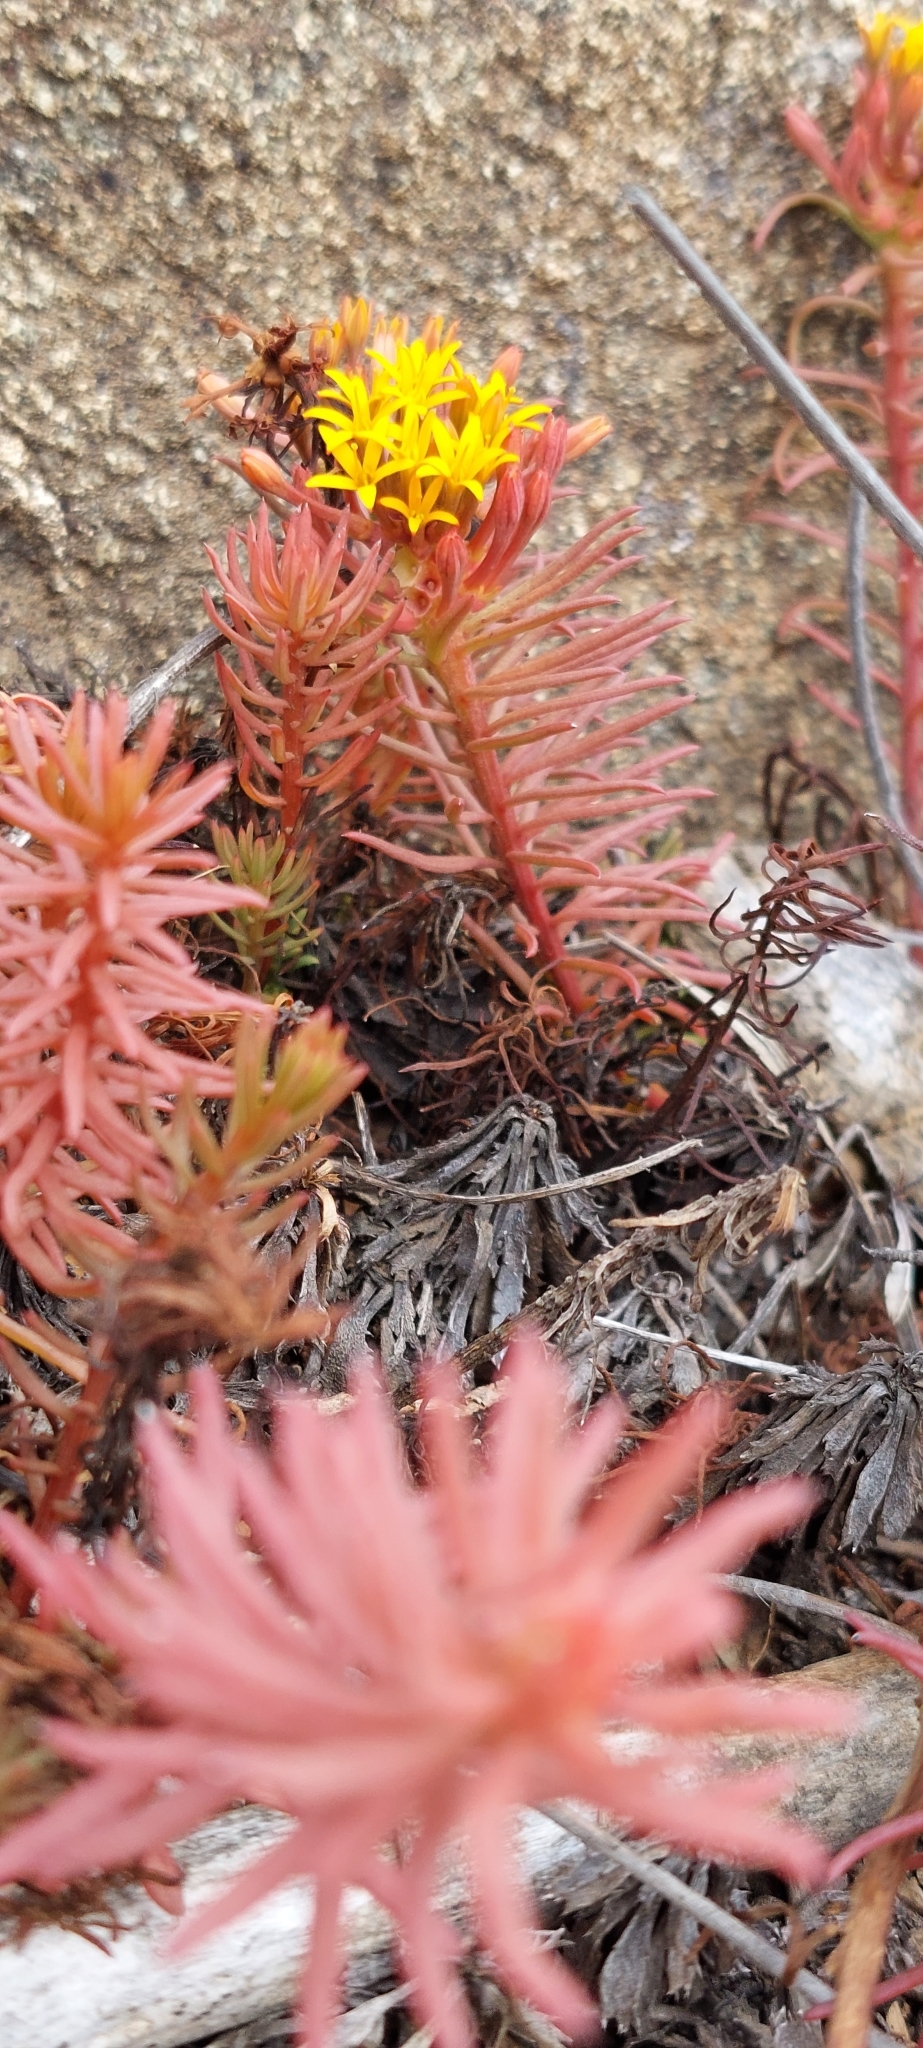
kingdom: Plantae
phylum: Tracheophyta
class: Magnoliopsida
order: Santalales
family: Schoepfiaceae
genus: Quinchamalium
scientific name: Quinchamalium chilense
